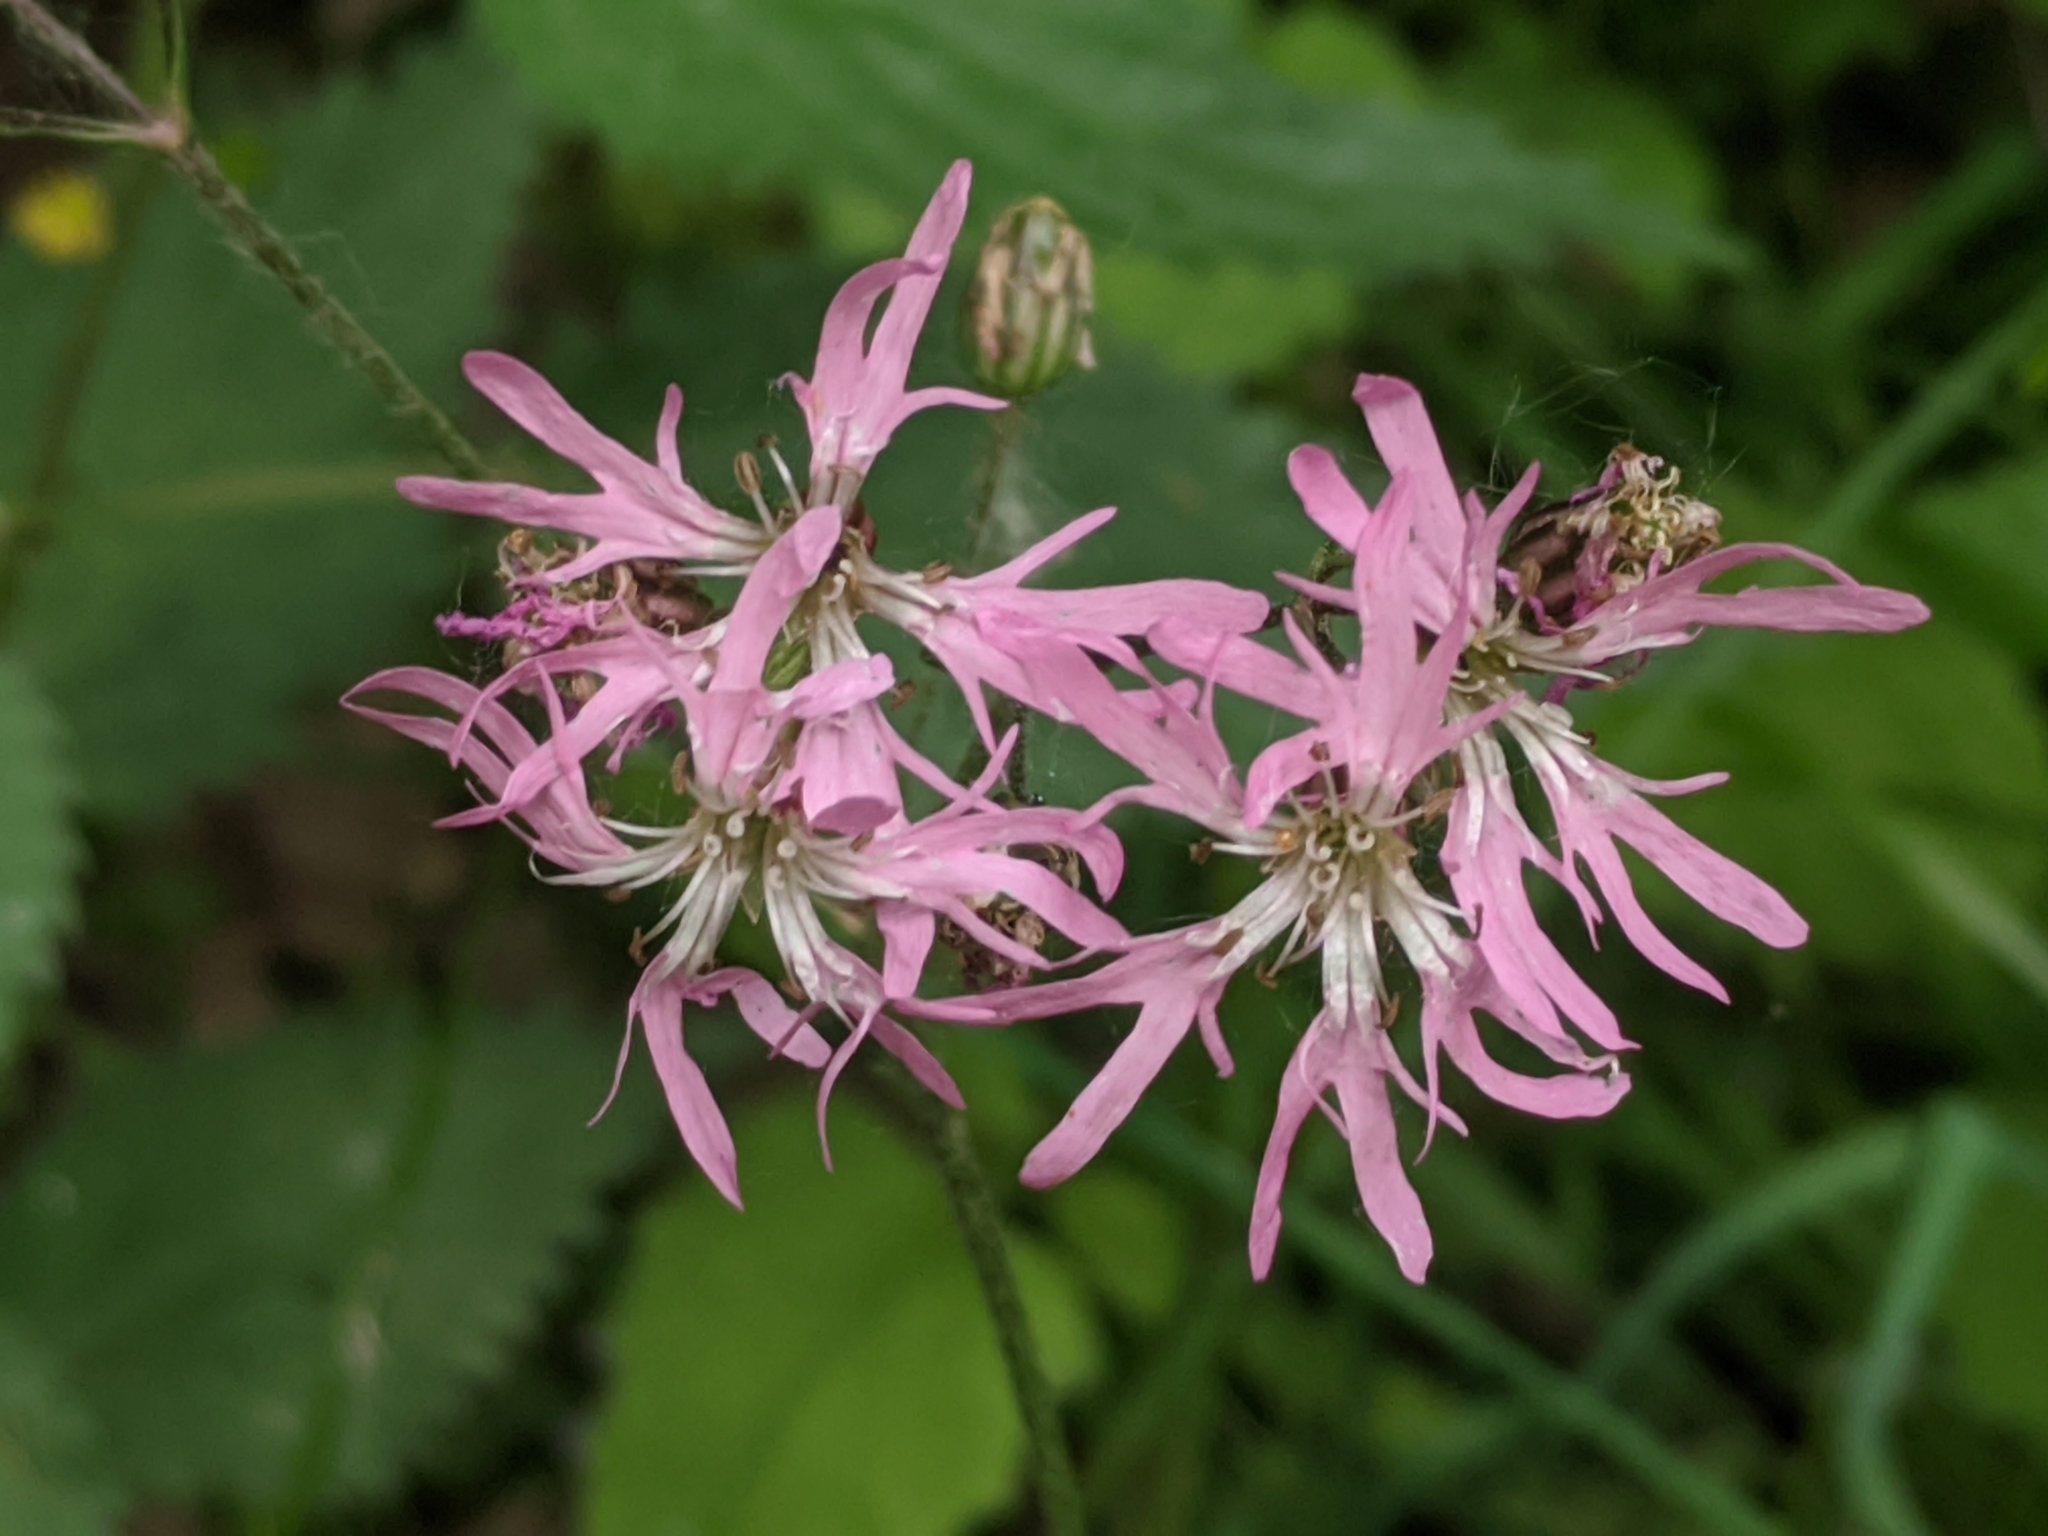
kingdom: Plantae
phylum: Tracheophyta
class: Magnoliopsida
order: Caryophyllales
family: Caryophyllaceae
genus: Silene
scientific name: Silene flos-cuculi
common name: Ragged-robin
